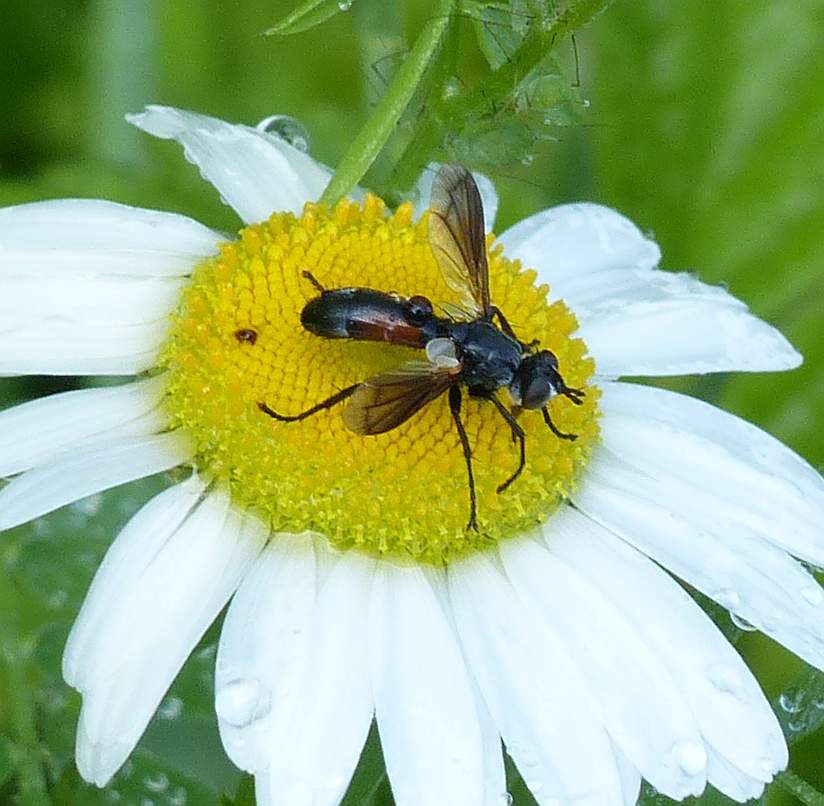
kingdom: Animalia
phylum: Arthropoda
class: Insecta
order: Diptera
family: Tachinidae
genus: Cylindromyia
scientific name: Cylindromyia
